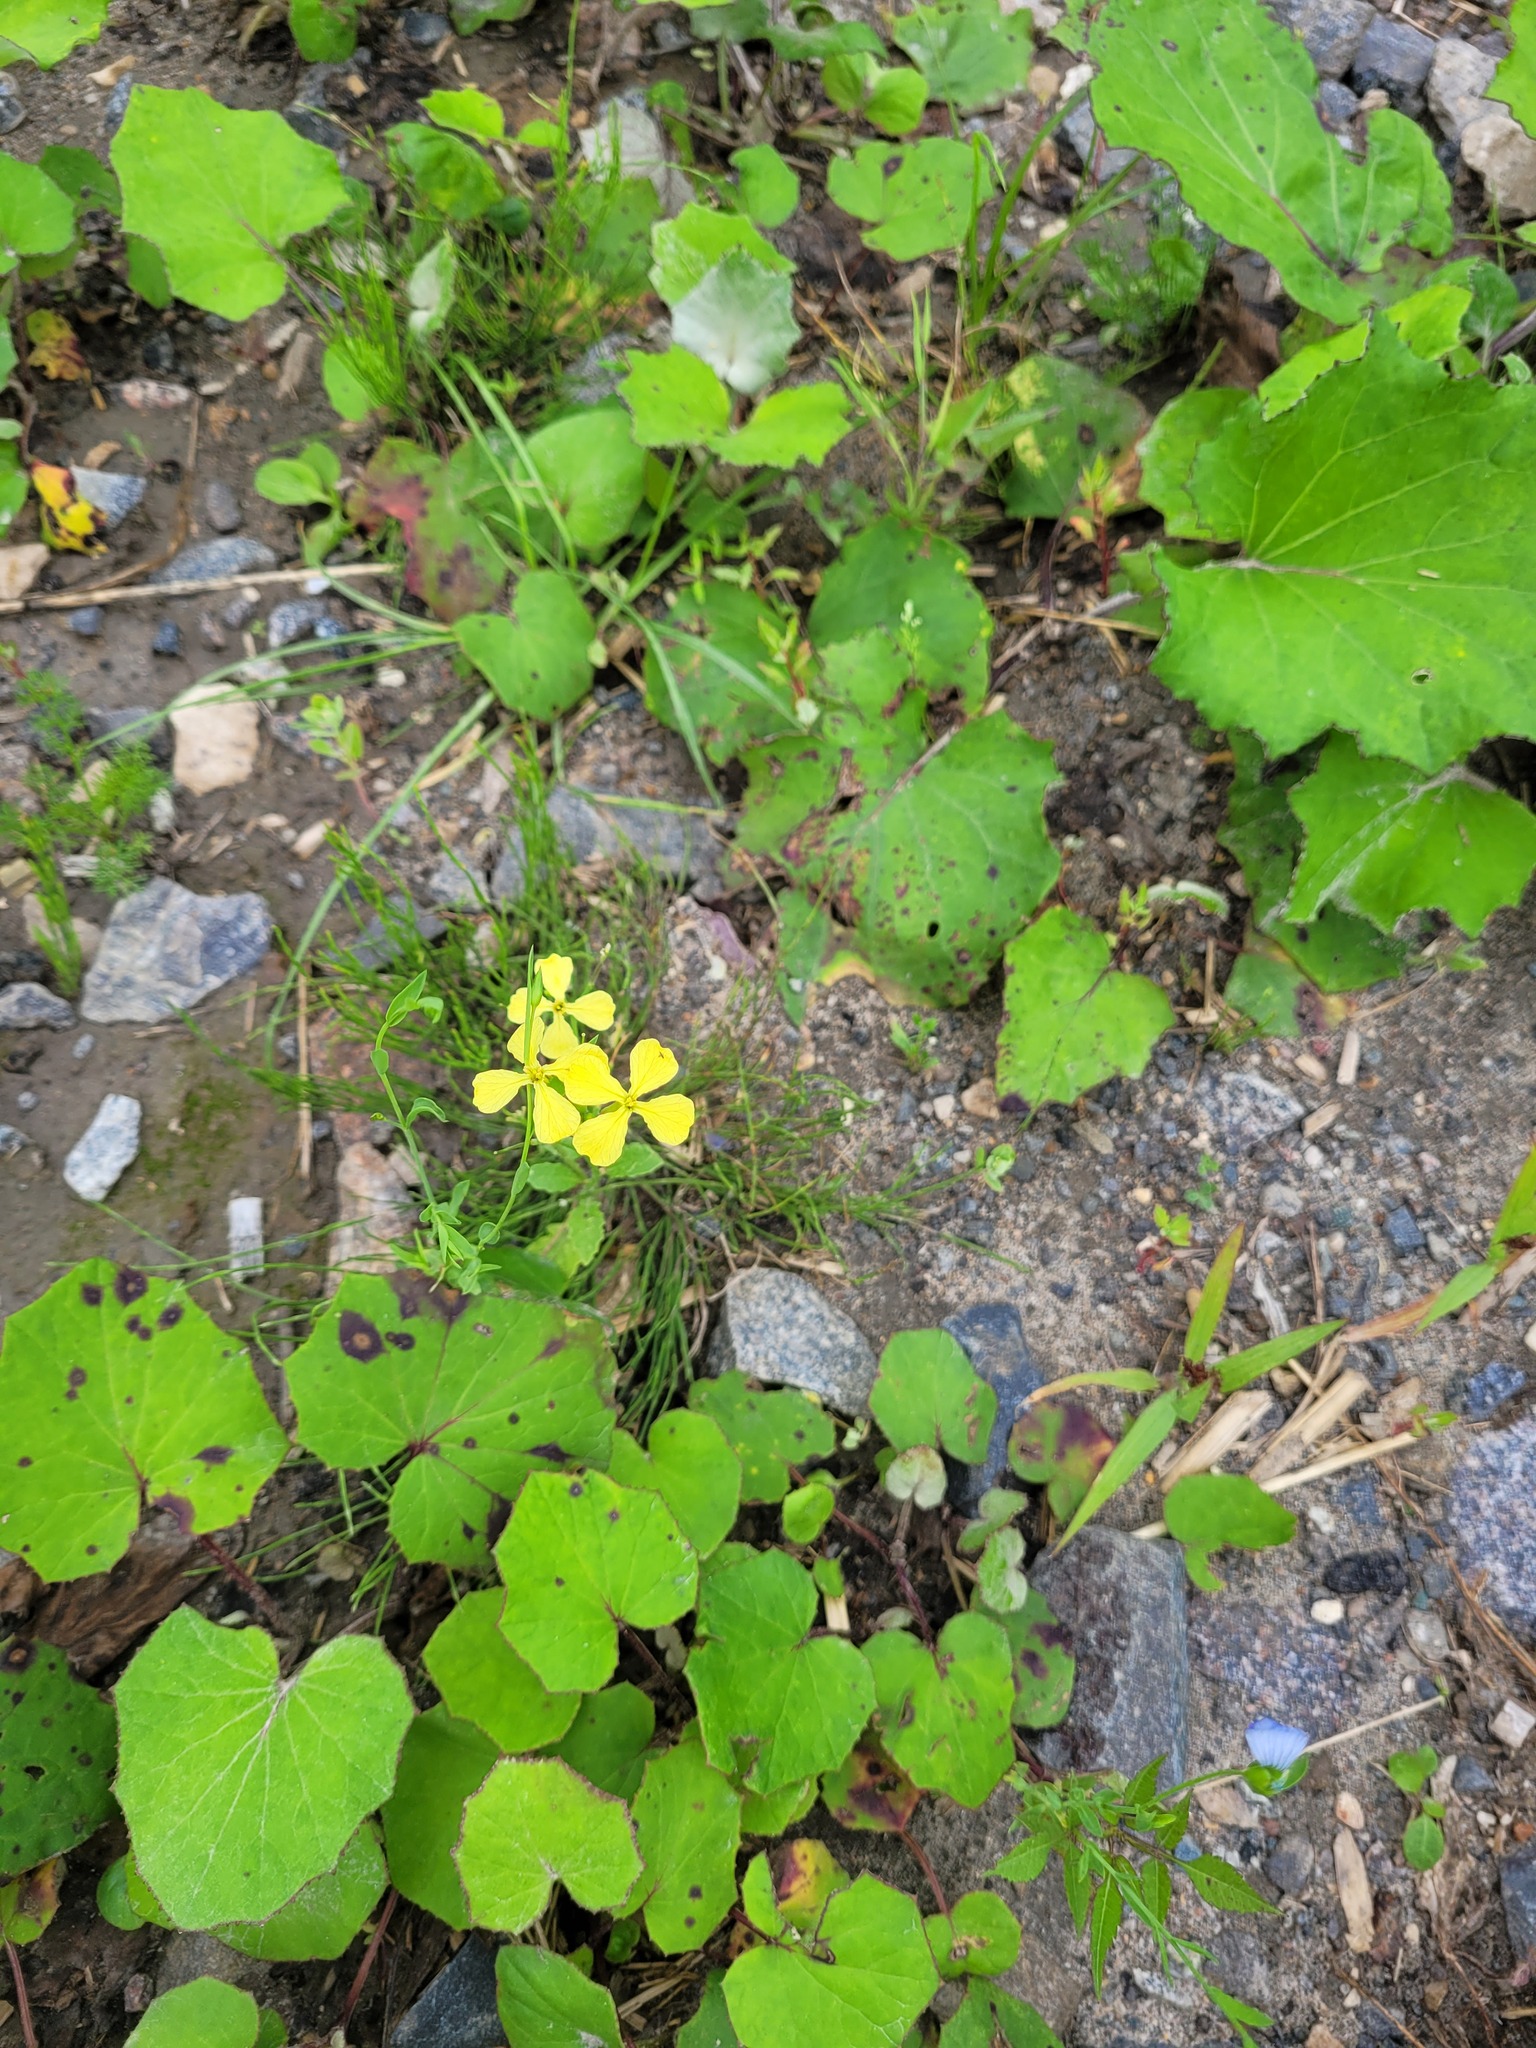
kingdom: Plantae
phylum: Tracheophyta
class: Magnoliopsida
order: Brassicales
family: Brassicaceae
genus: Raphanus
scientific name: Raphanus raphanistrum
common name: Wild radish
